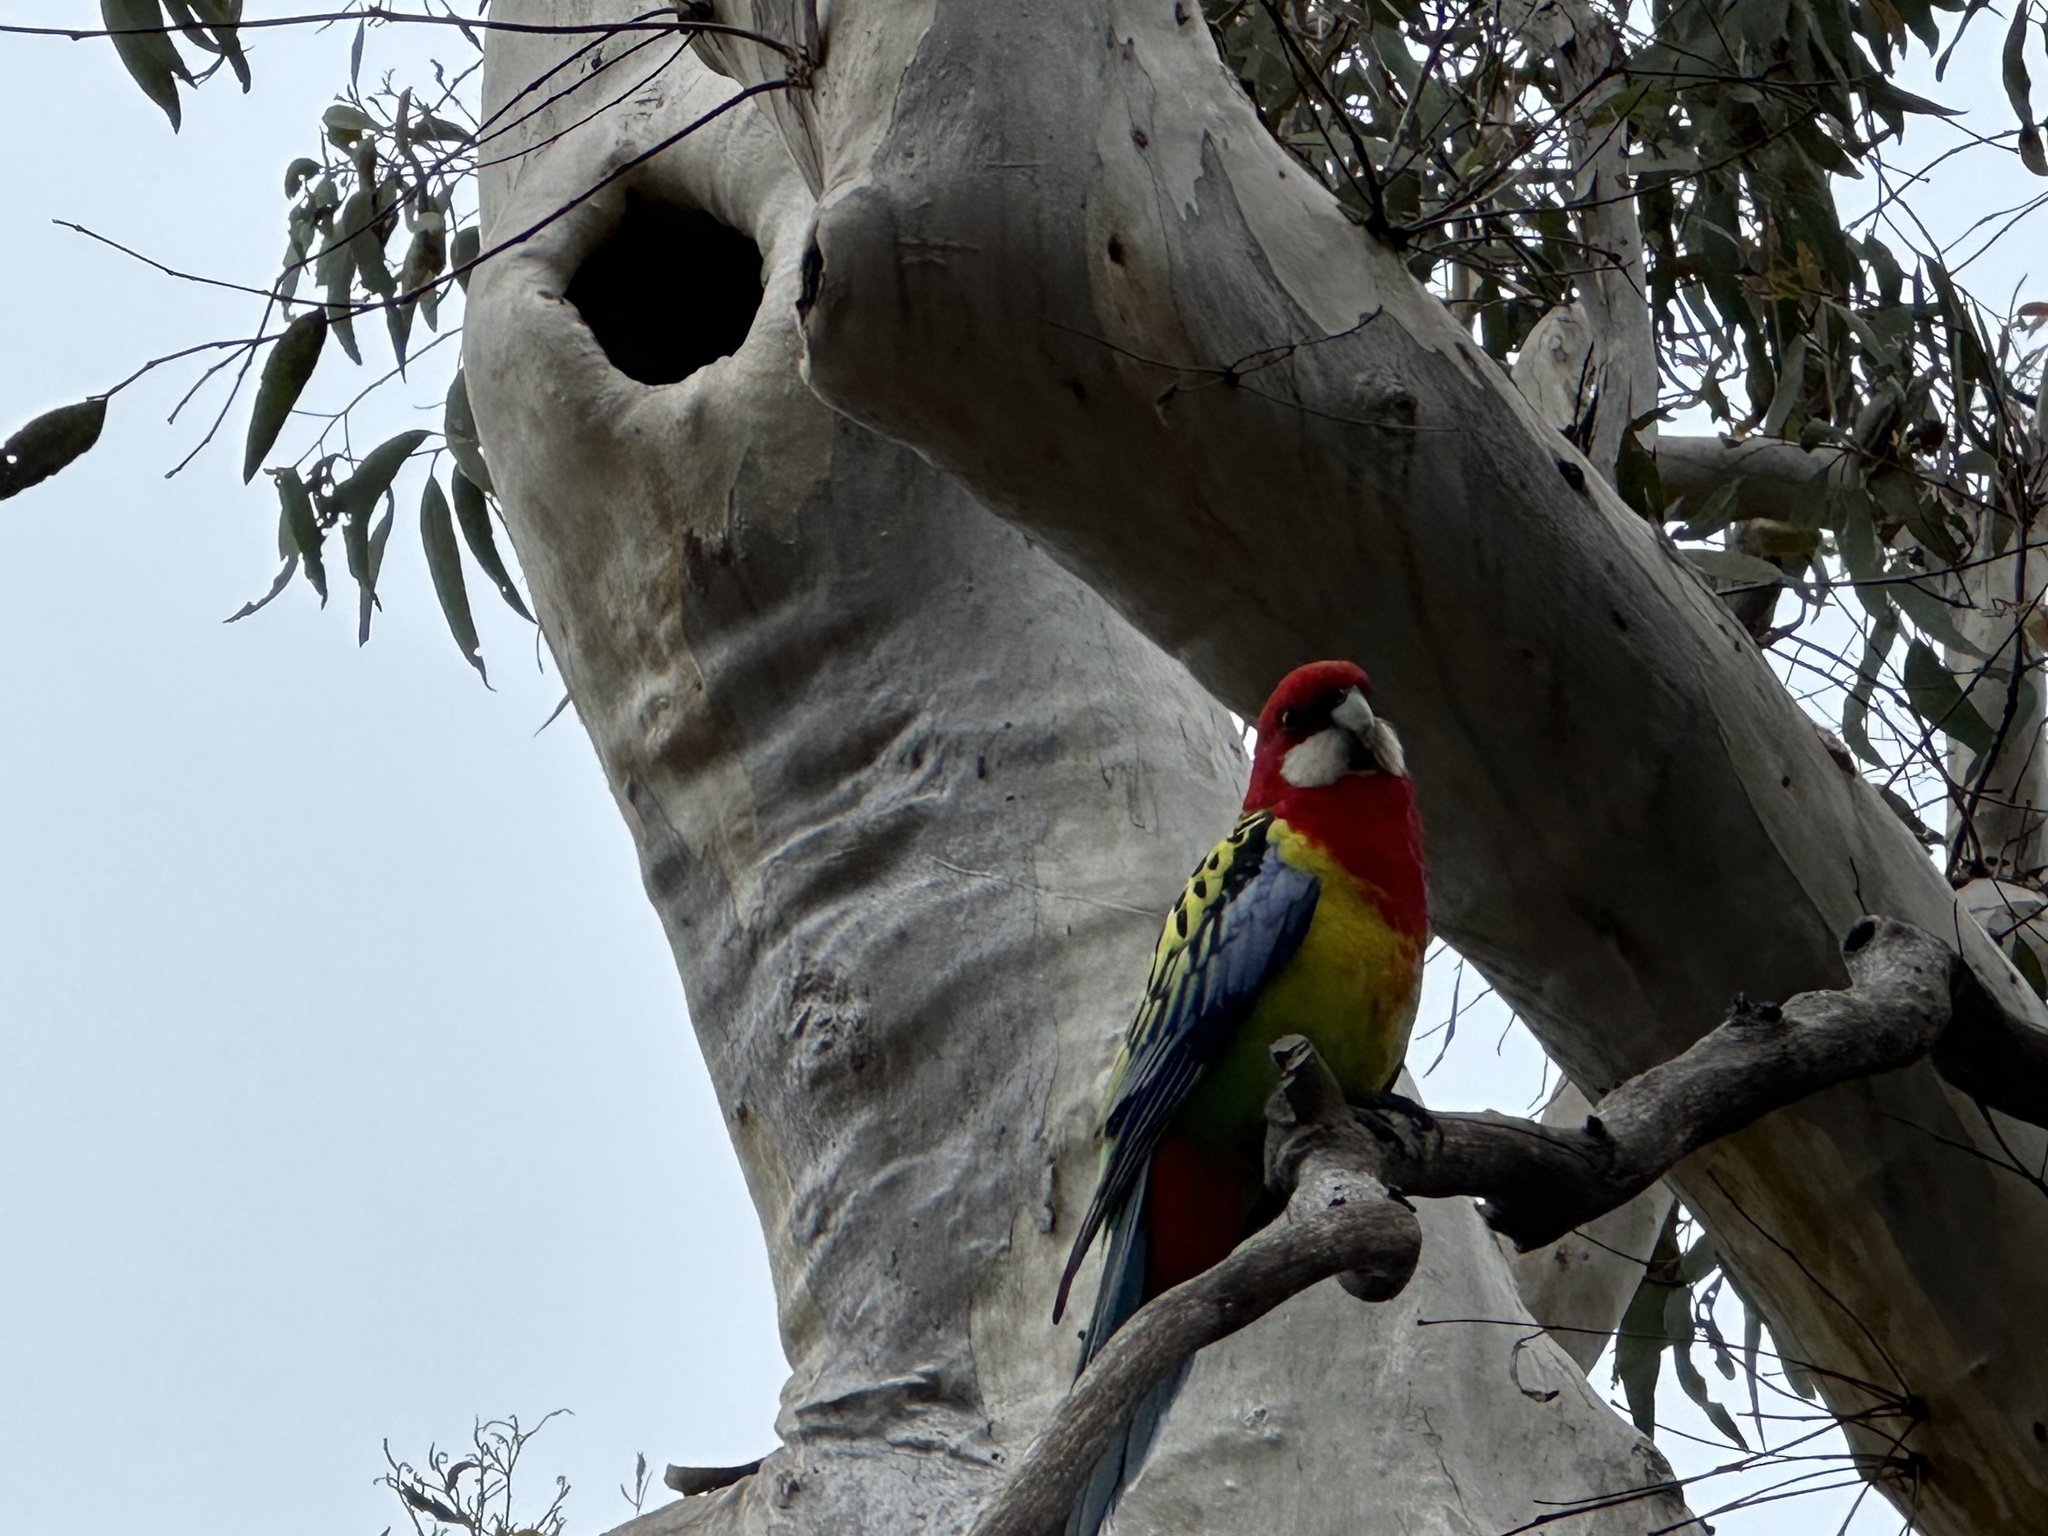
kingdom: Animalia
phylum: Chordata
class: Aves
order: Psittaciformes
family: Psittacidae
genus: Platycercus
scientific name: Platycercus eximius
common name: Eastern rosella
